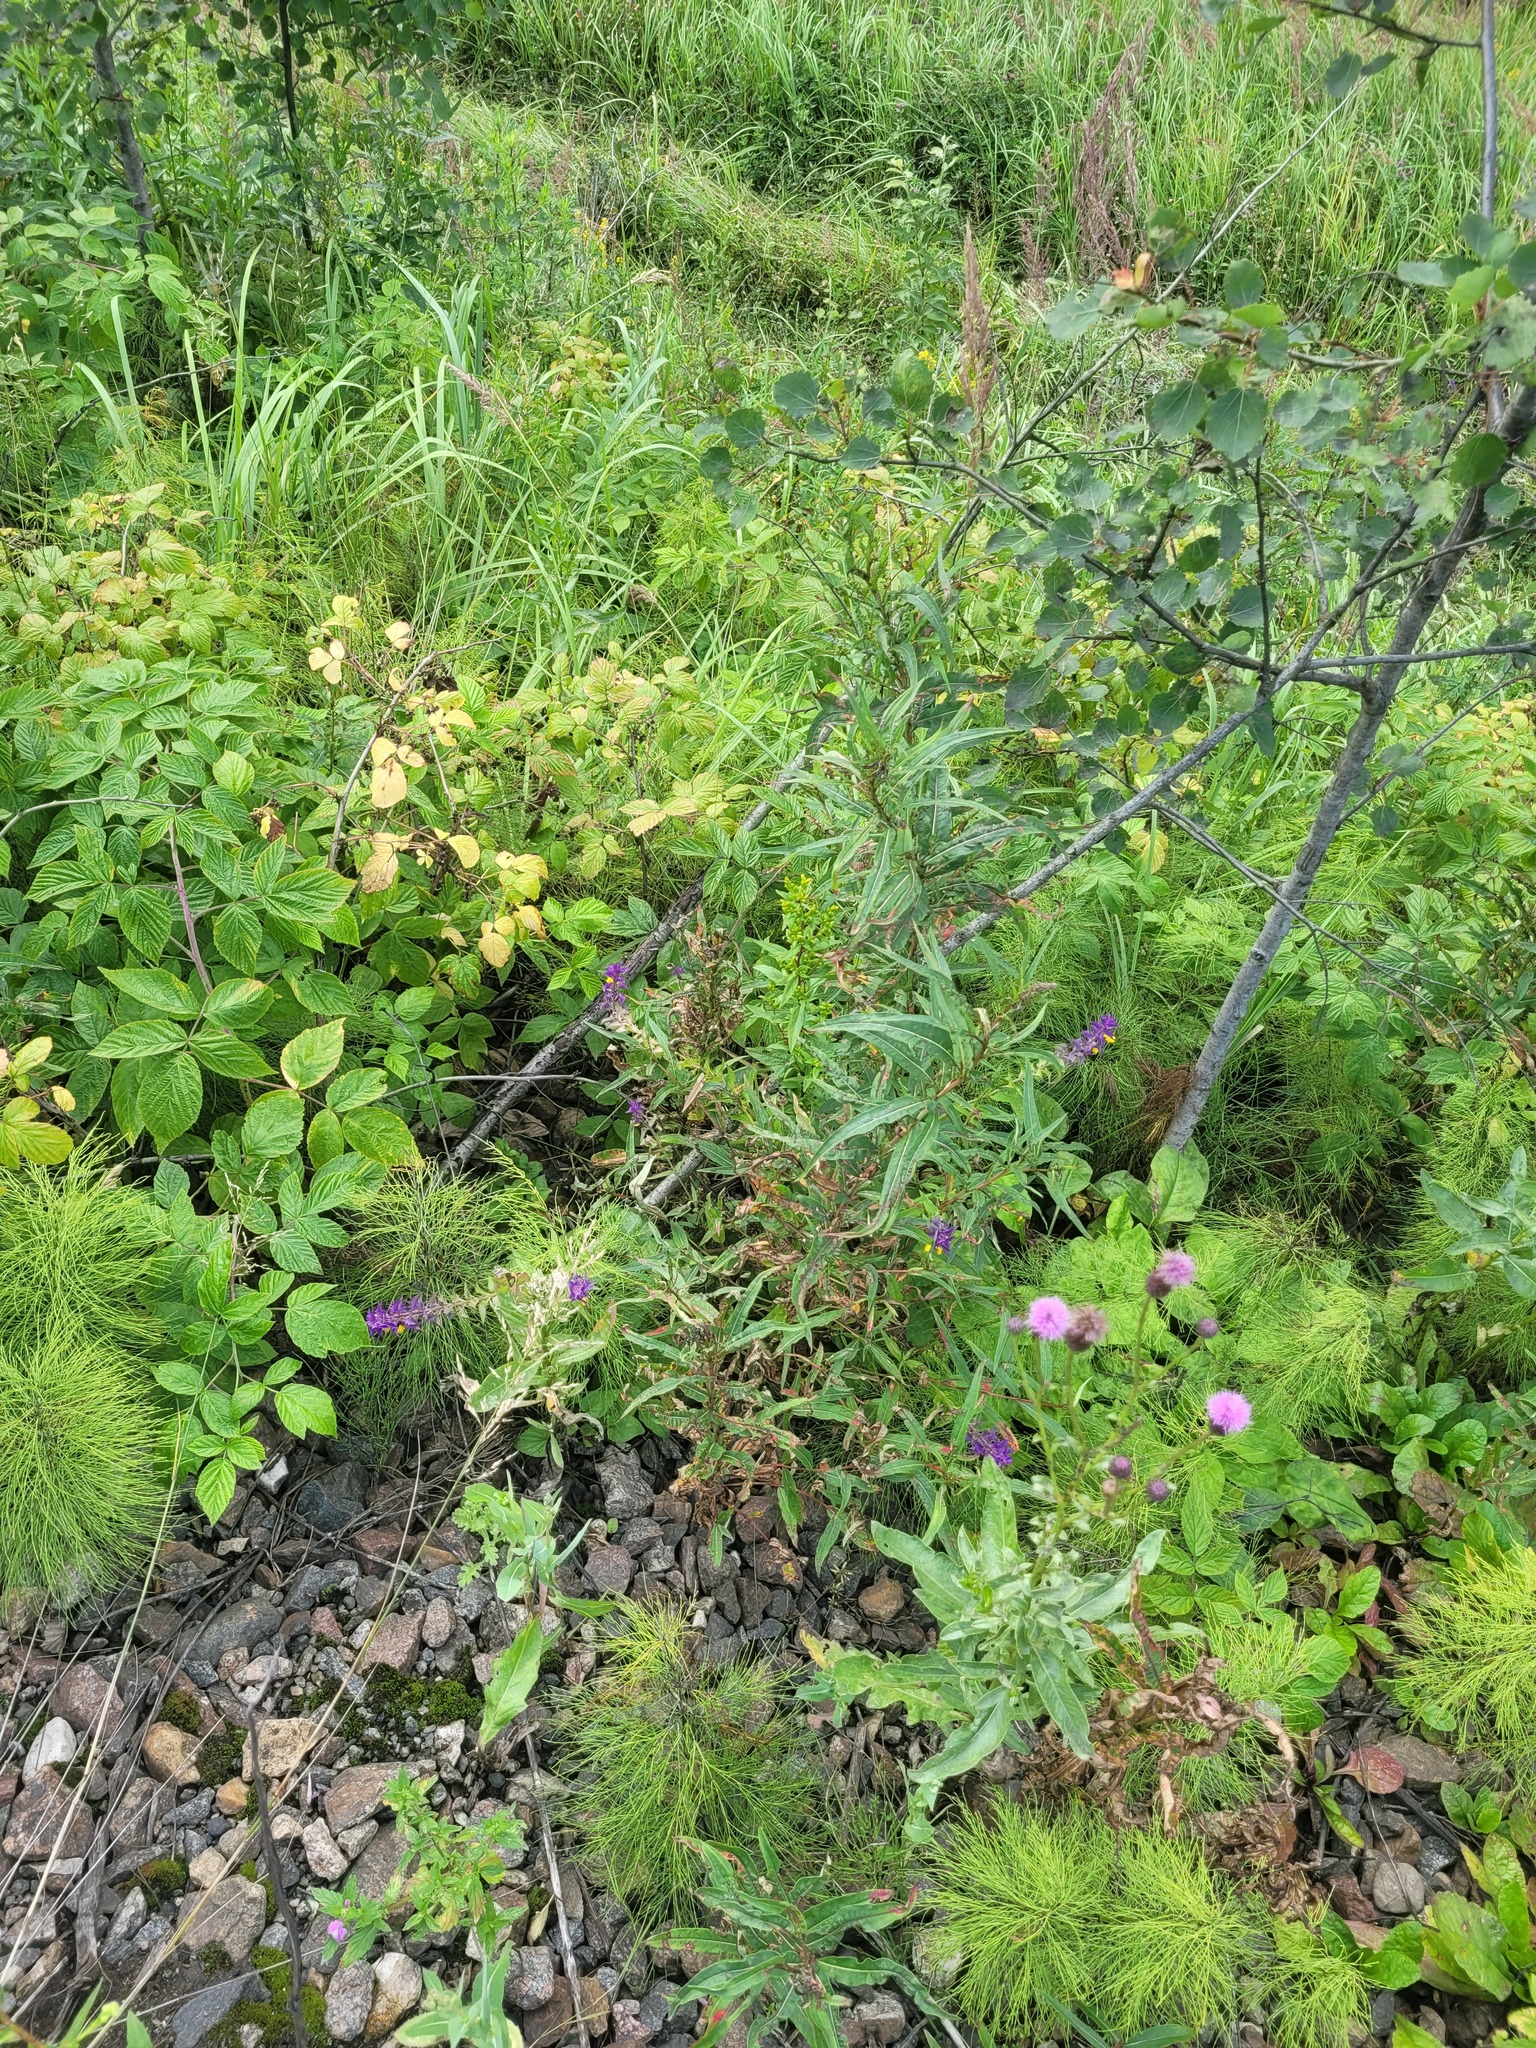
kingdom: Plantae
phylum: Tracheophyta
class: Magnoliopsida
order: Lamiales
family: Orobanchaceae
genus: Melampyrum
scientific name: Melampyrum nemorosum
